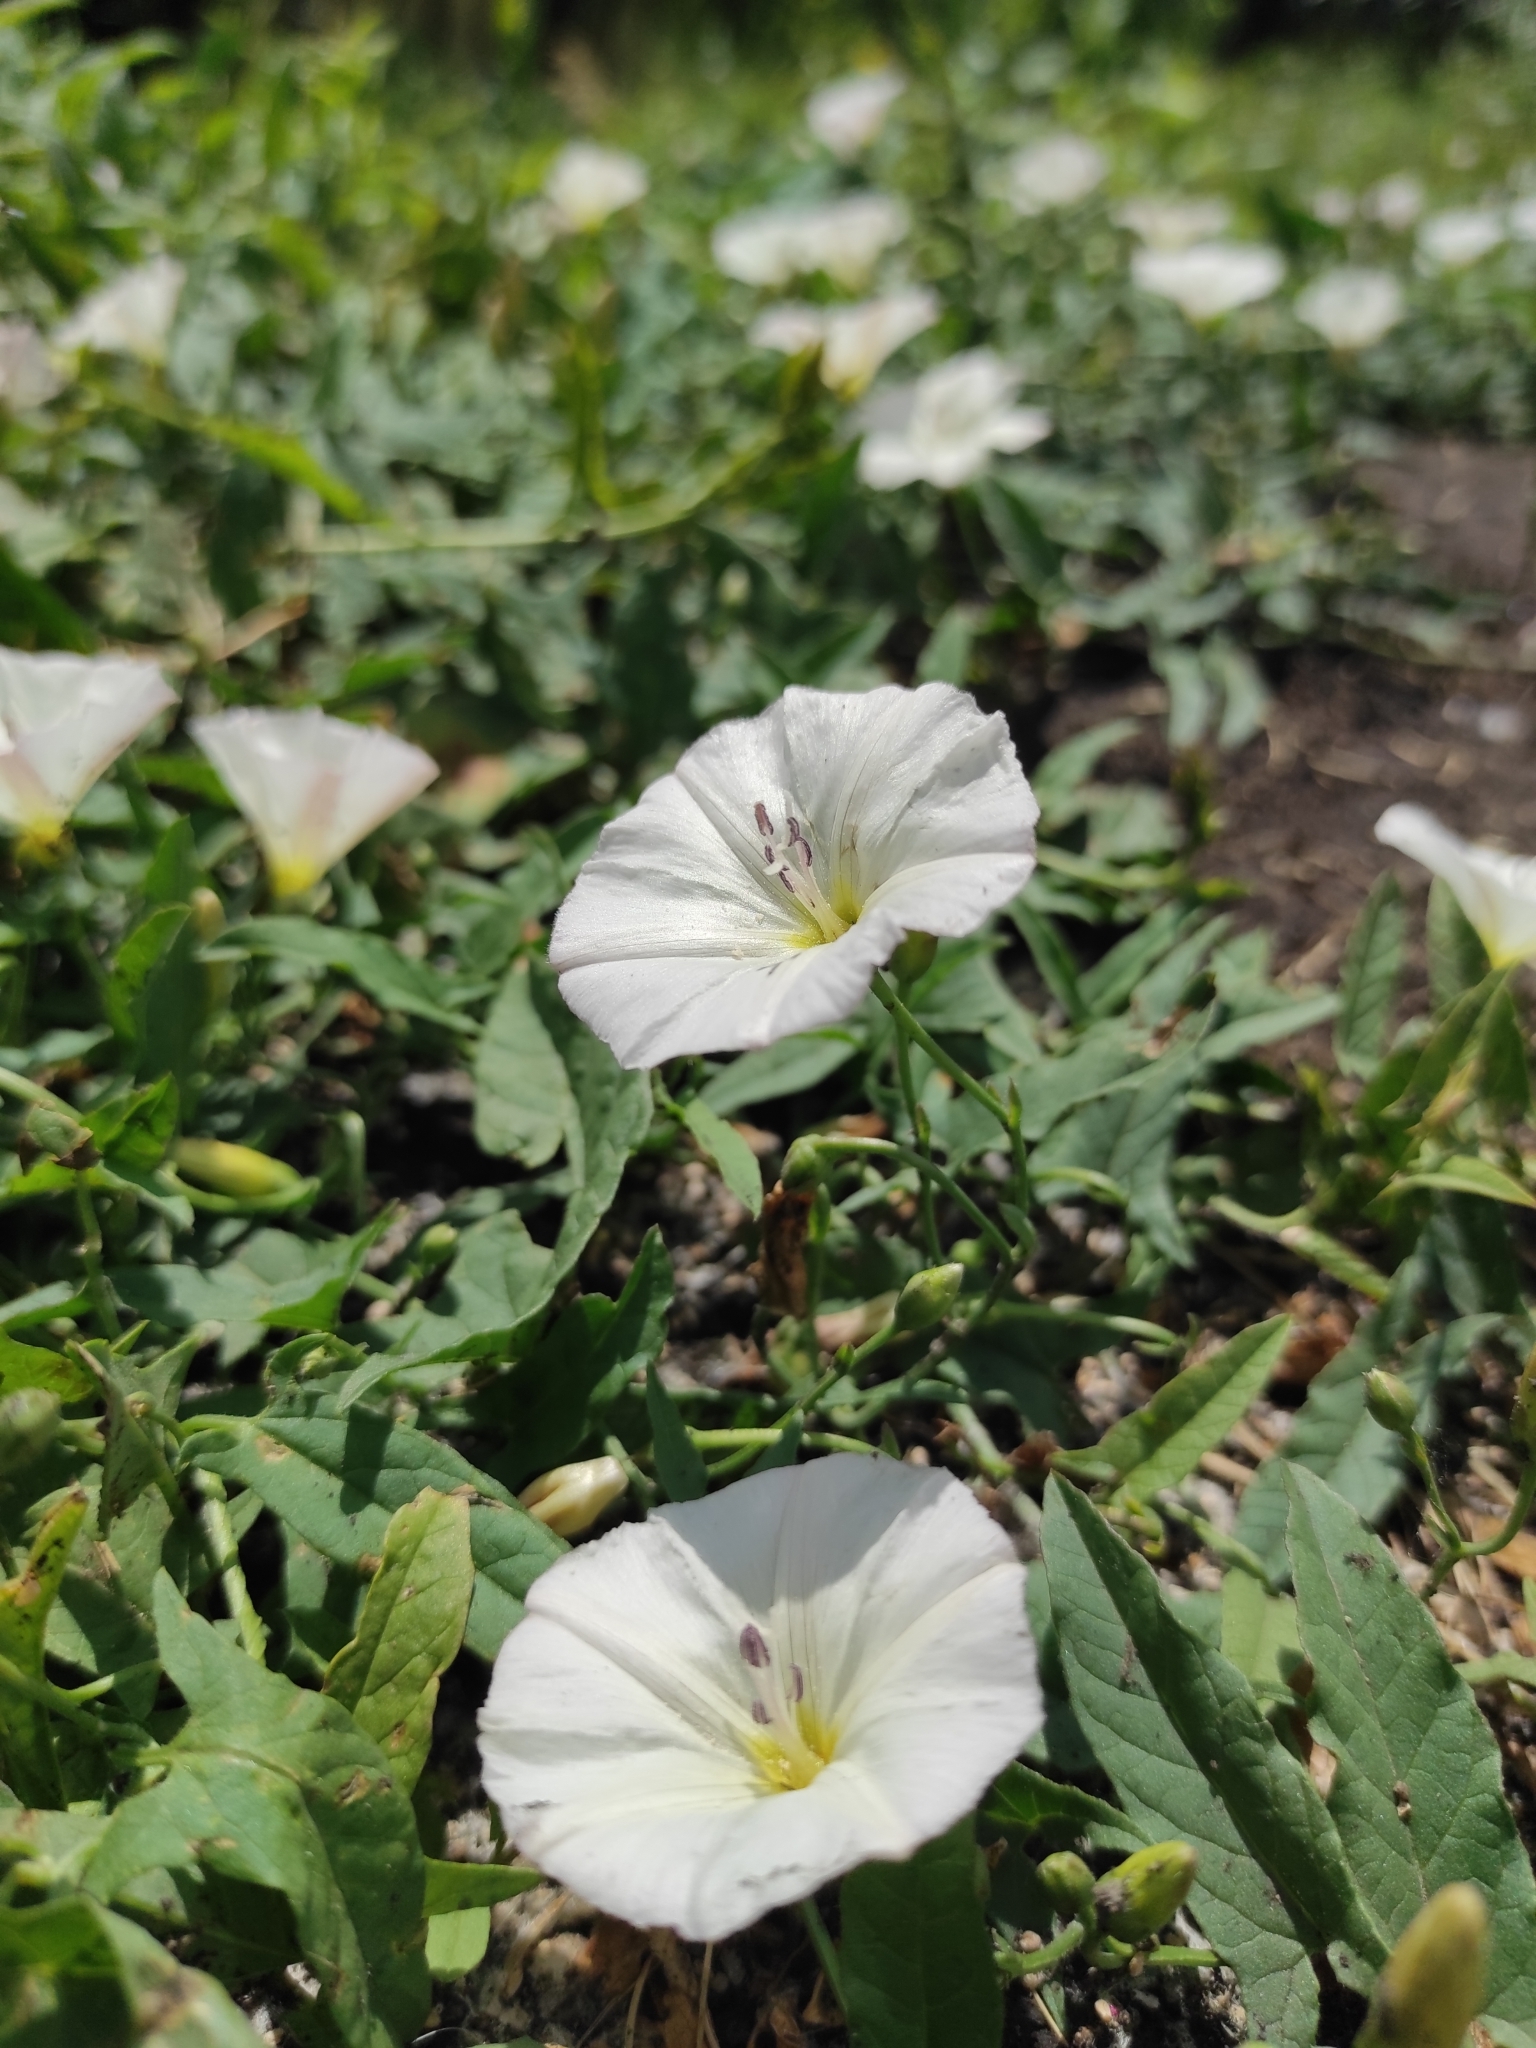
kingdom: Plantae
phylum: Tracheophyta
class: Magnoliopsida
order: Solanales
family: Convolvulaceae
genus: Convolvulus
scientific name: Convolvulus arvensis
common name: Field bindweed
